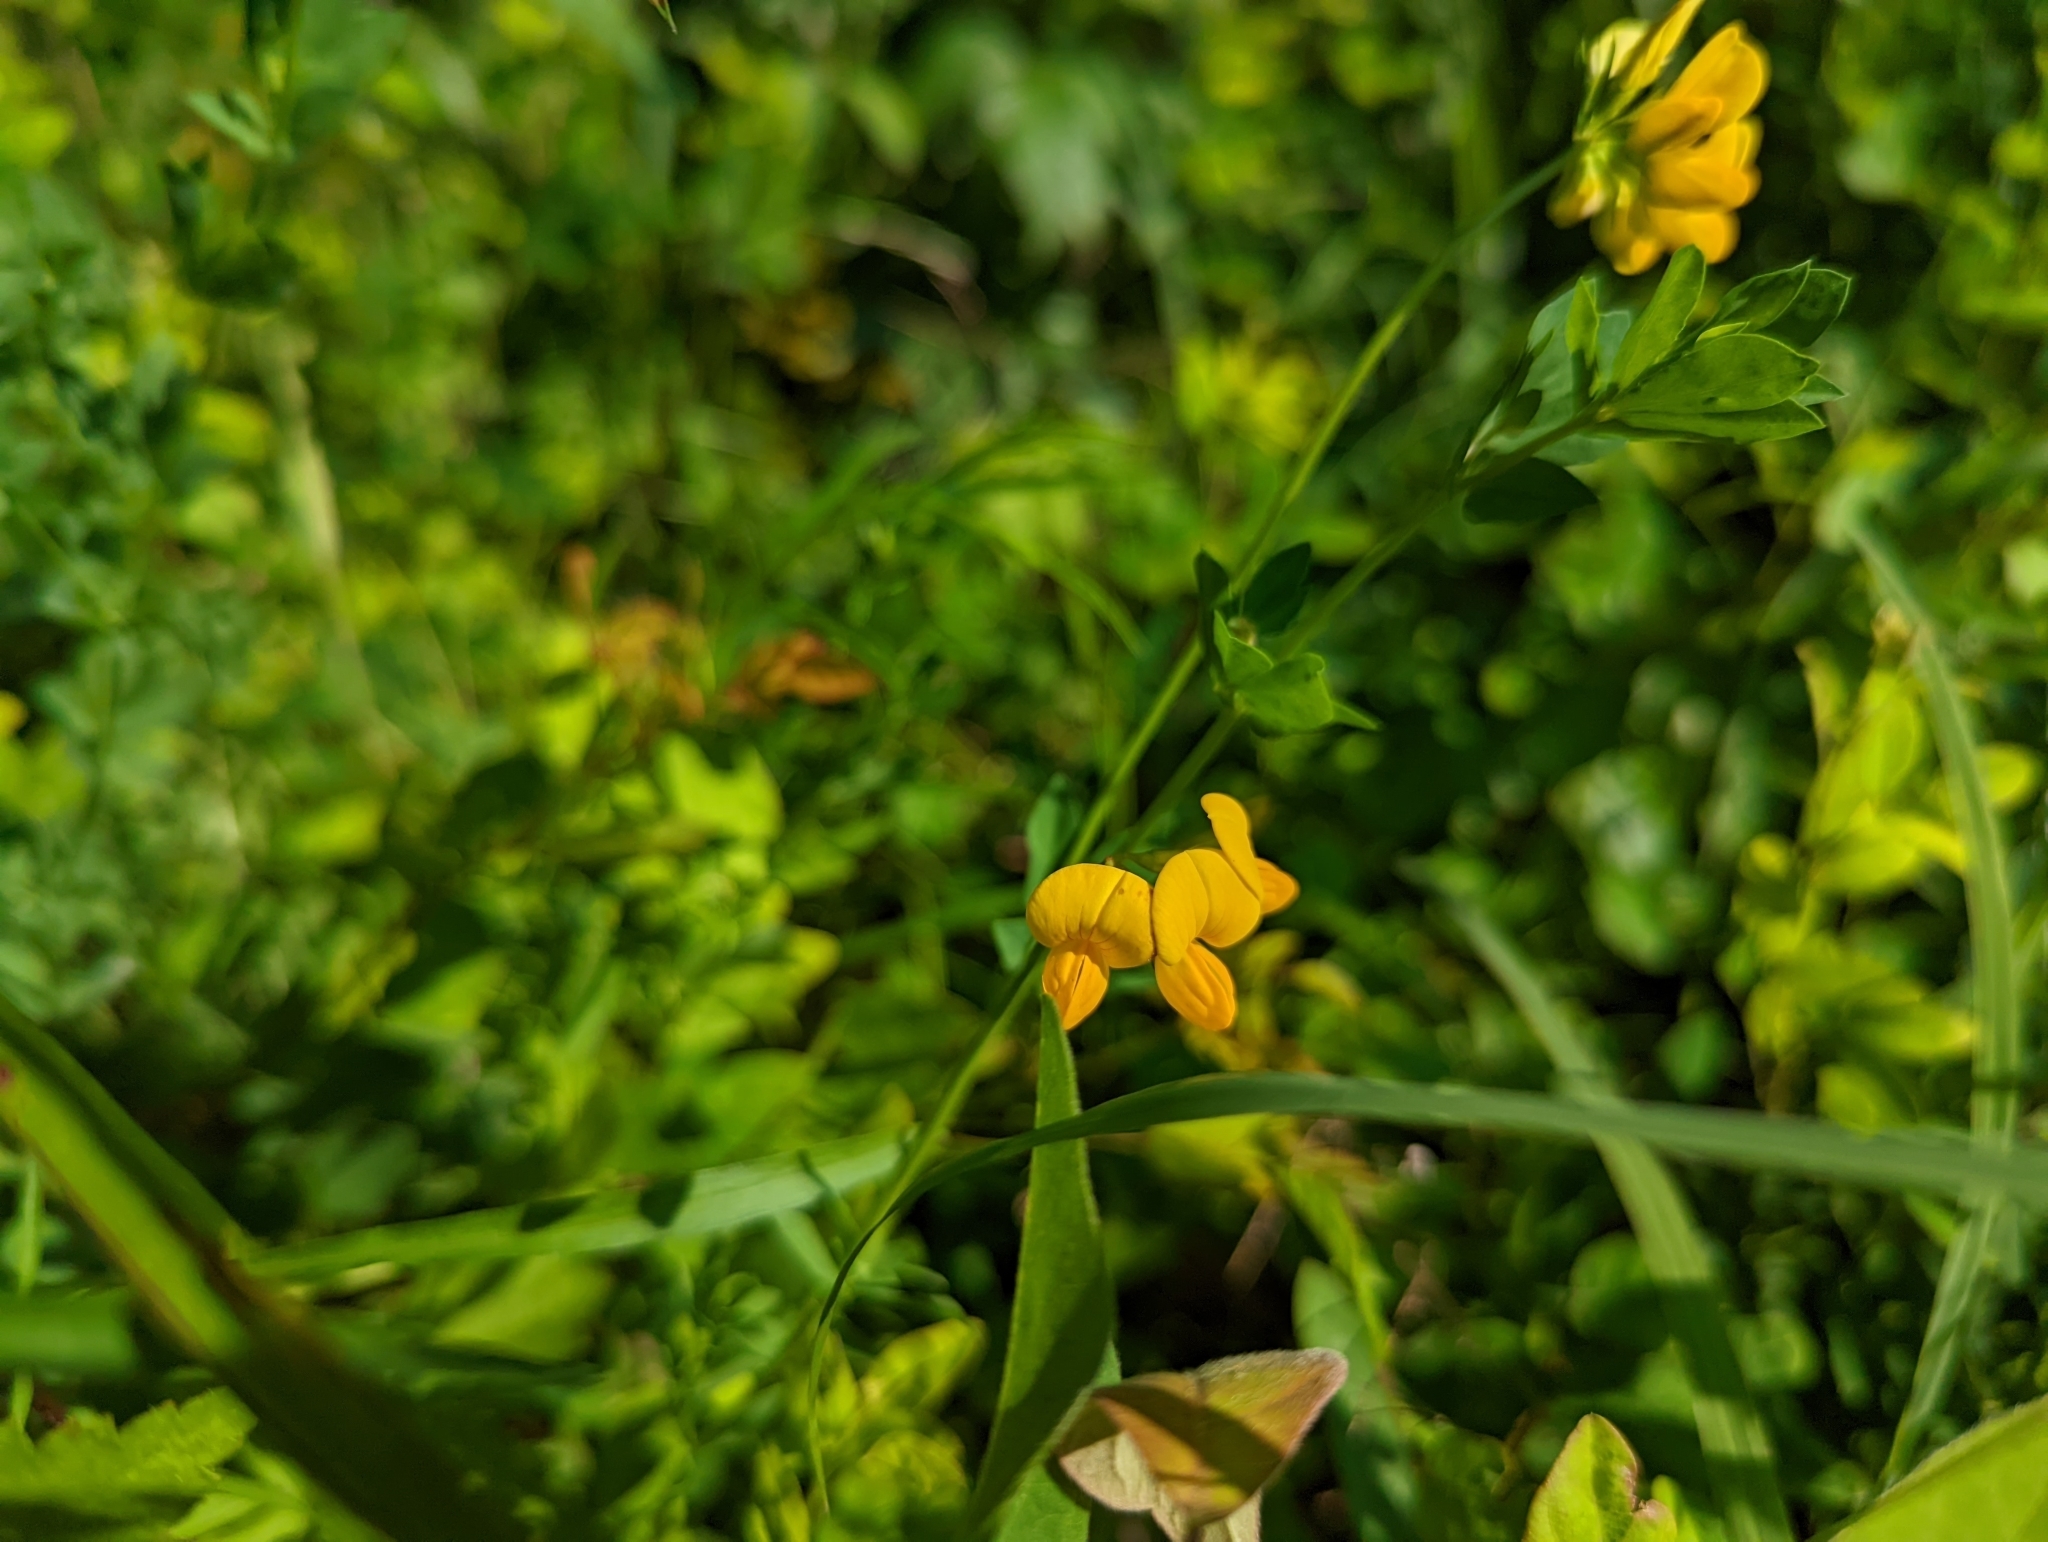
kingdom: Plantae
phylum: Tracheophyta
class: Magnoliopsida
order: Fabales
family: Fabaceae
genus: Lotus
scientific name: Lotus corniculatus
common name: Common bird's-foot-trefoil
